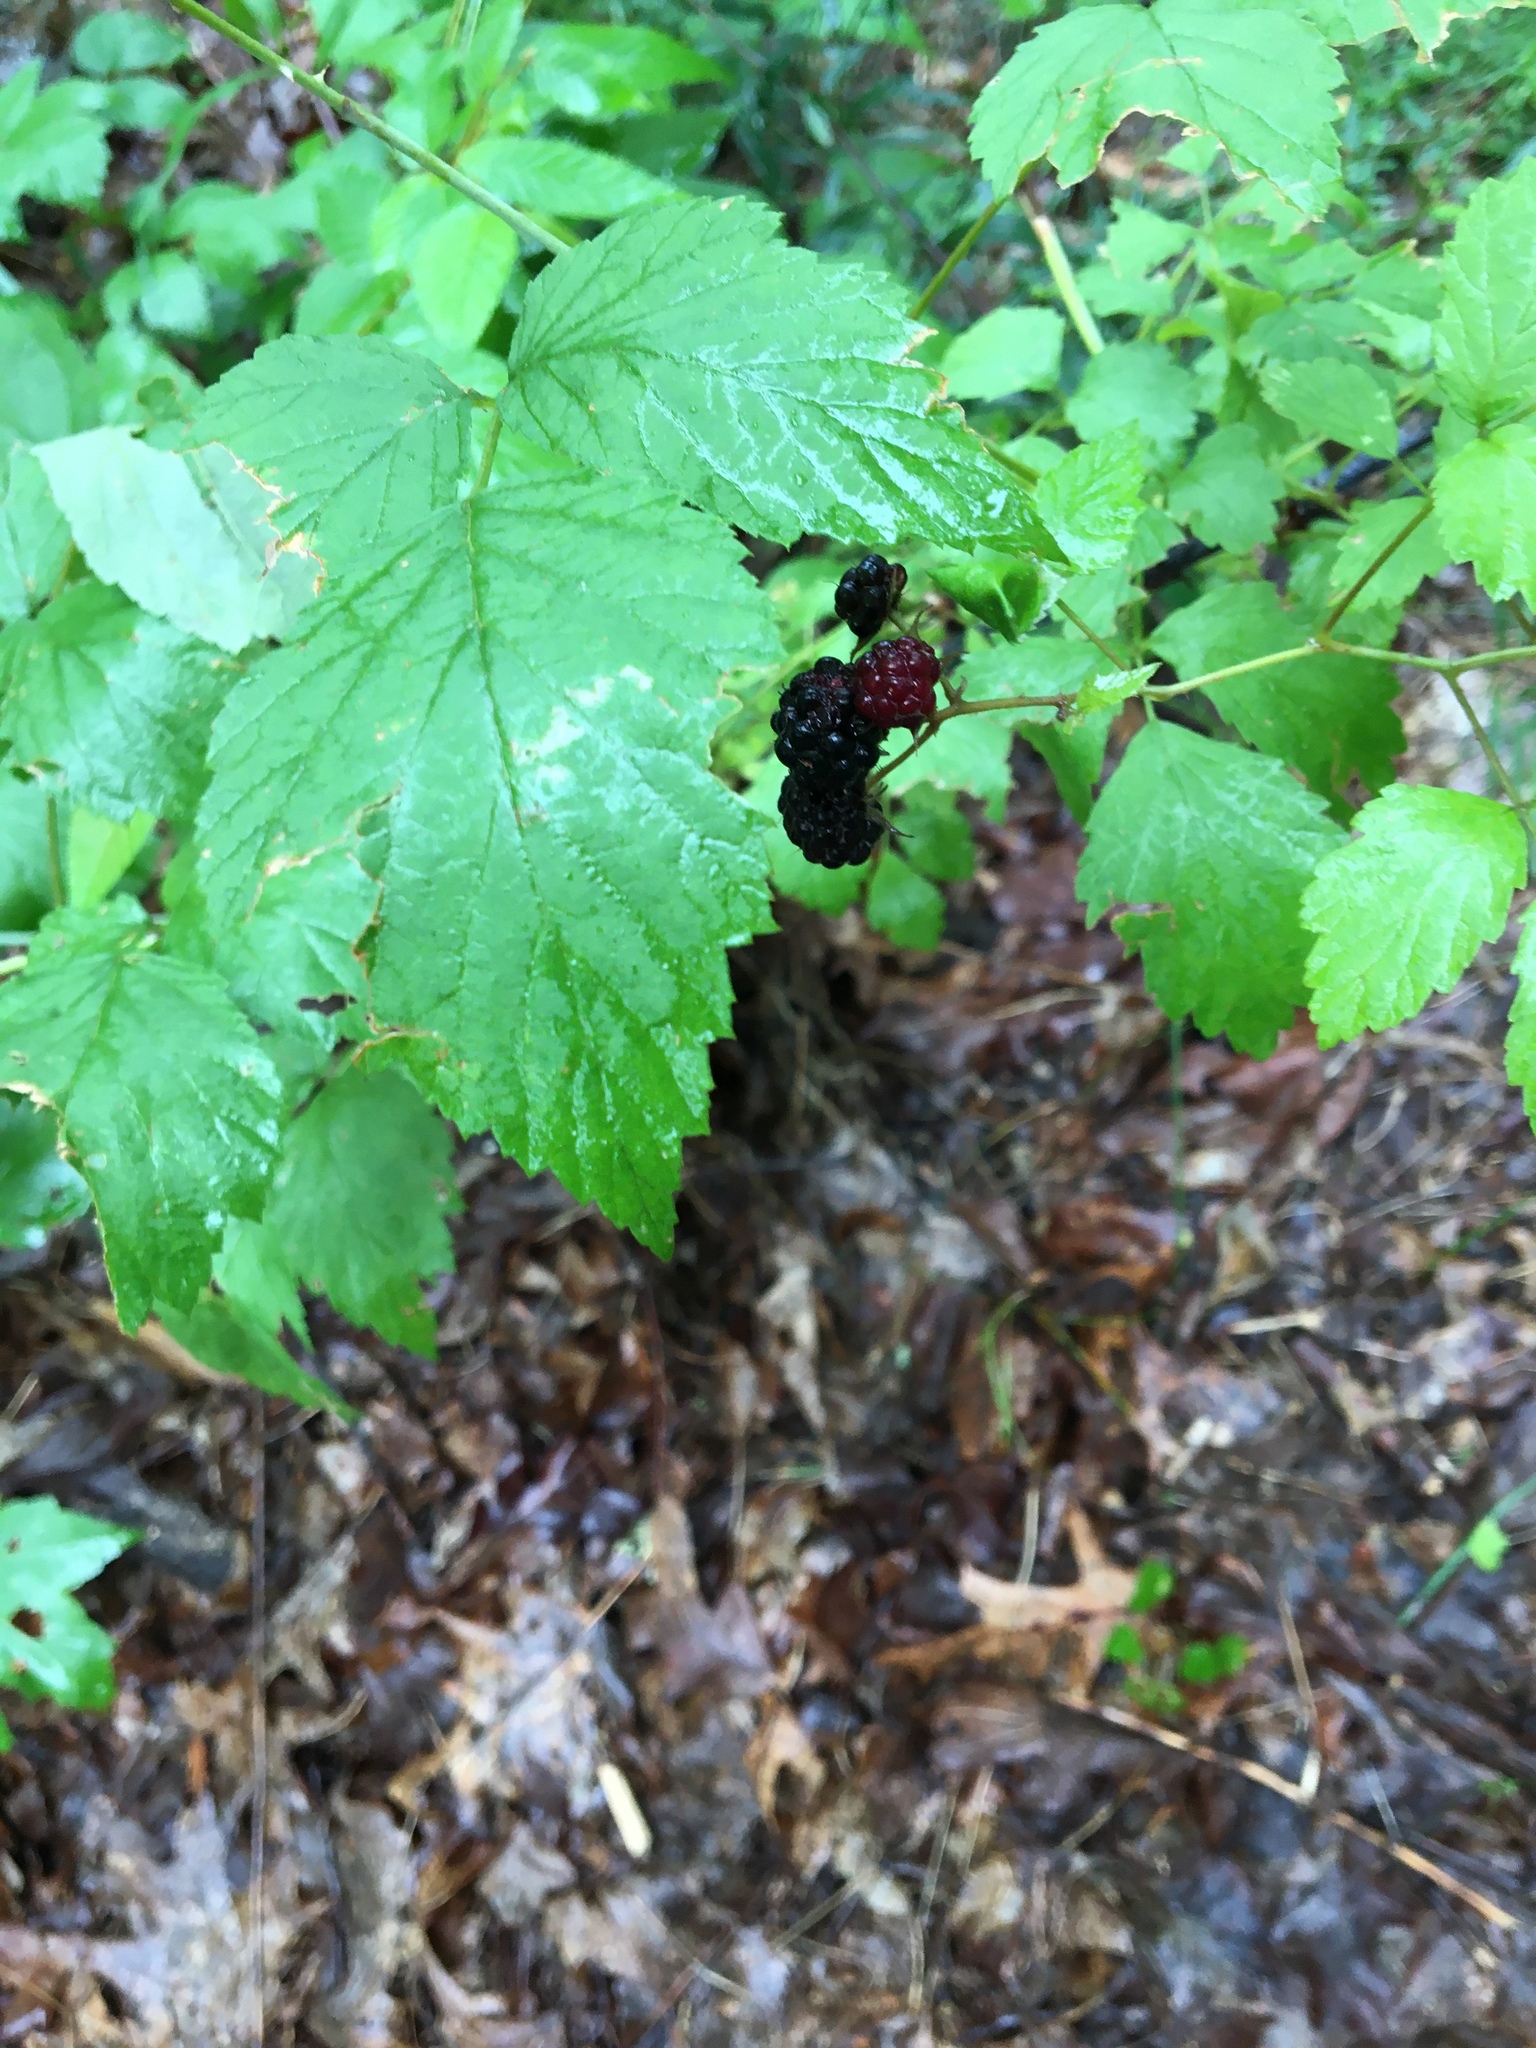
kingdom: Plantae
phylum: Tracheophyta
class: Magnoliopsida
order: Rosales
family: Rosaceae
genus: Rubus
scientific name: Rubus occidentalis
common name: Black raspberry
